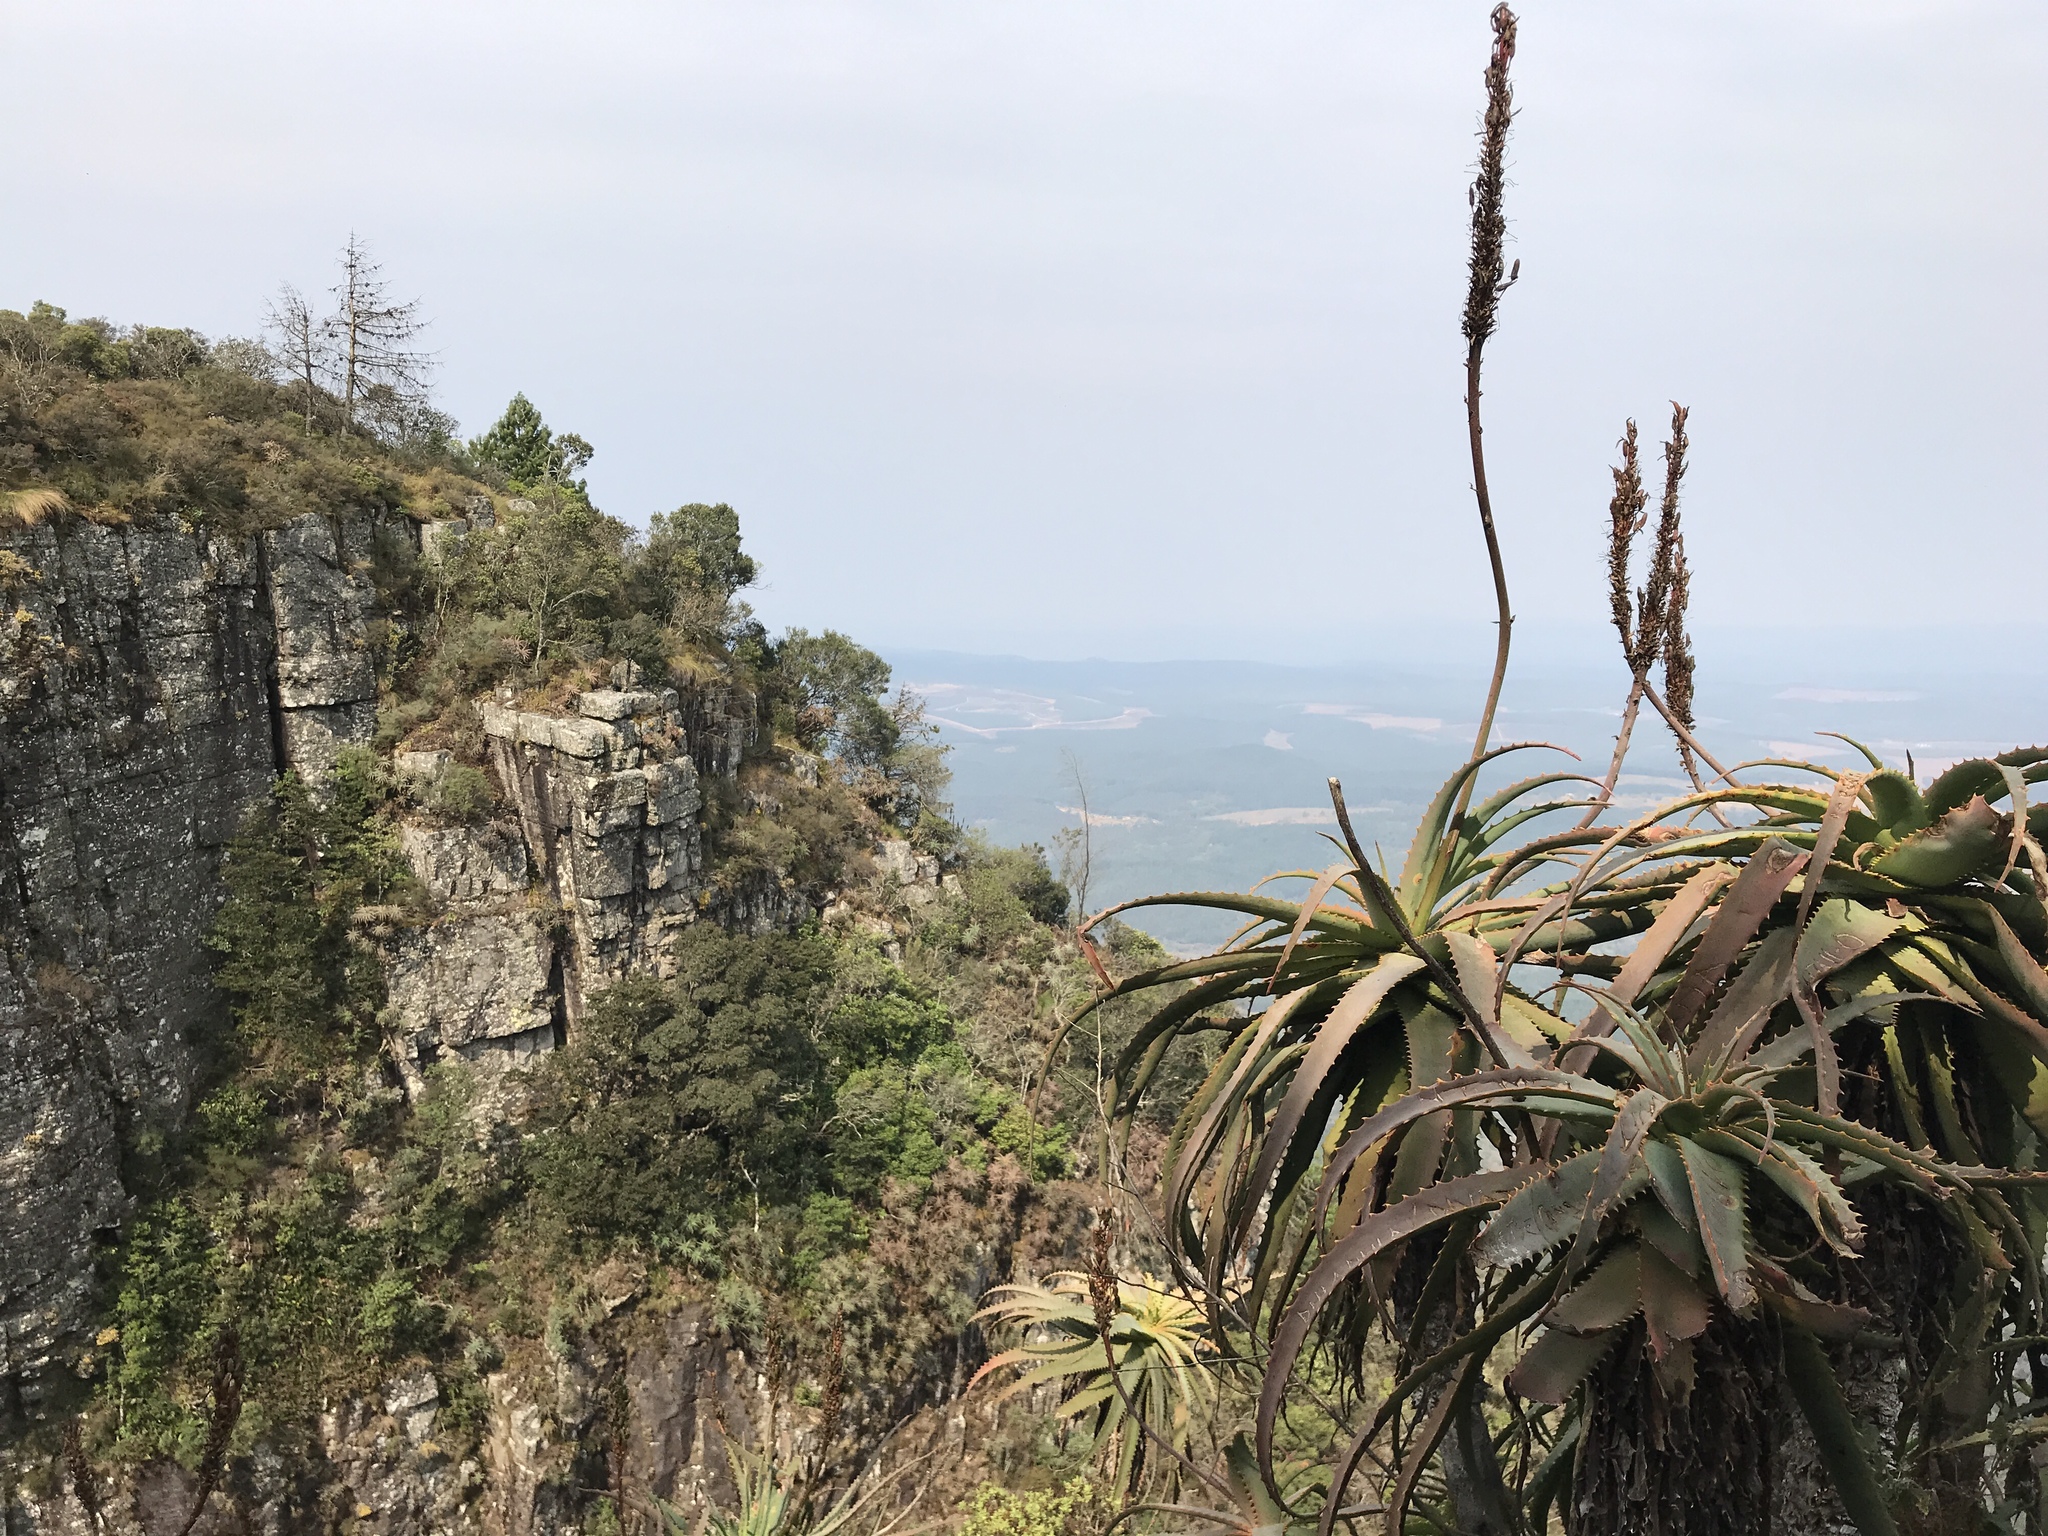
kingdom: Plantae
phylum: Tracheophyta
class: Liliopsida
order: Asparagales
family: Asphodelaceae
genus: Aloe
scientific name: Aloe arborescens
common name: Candelabra aloe
